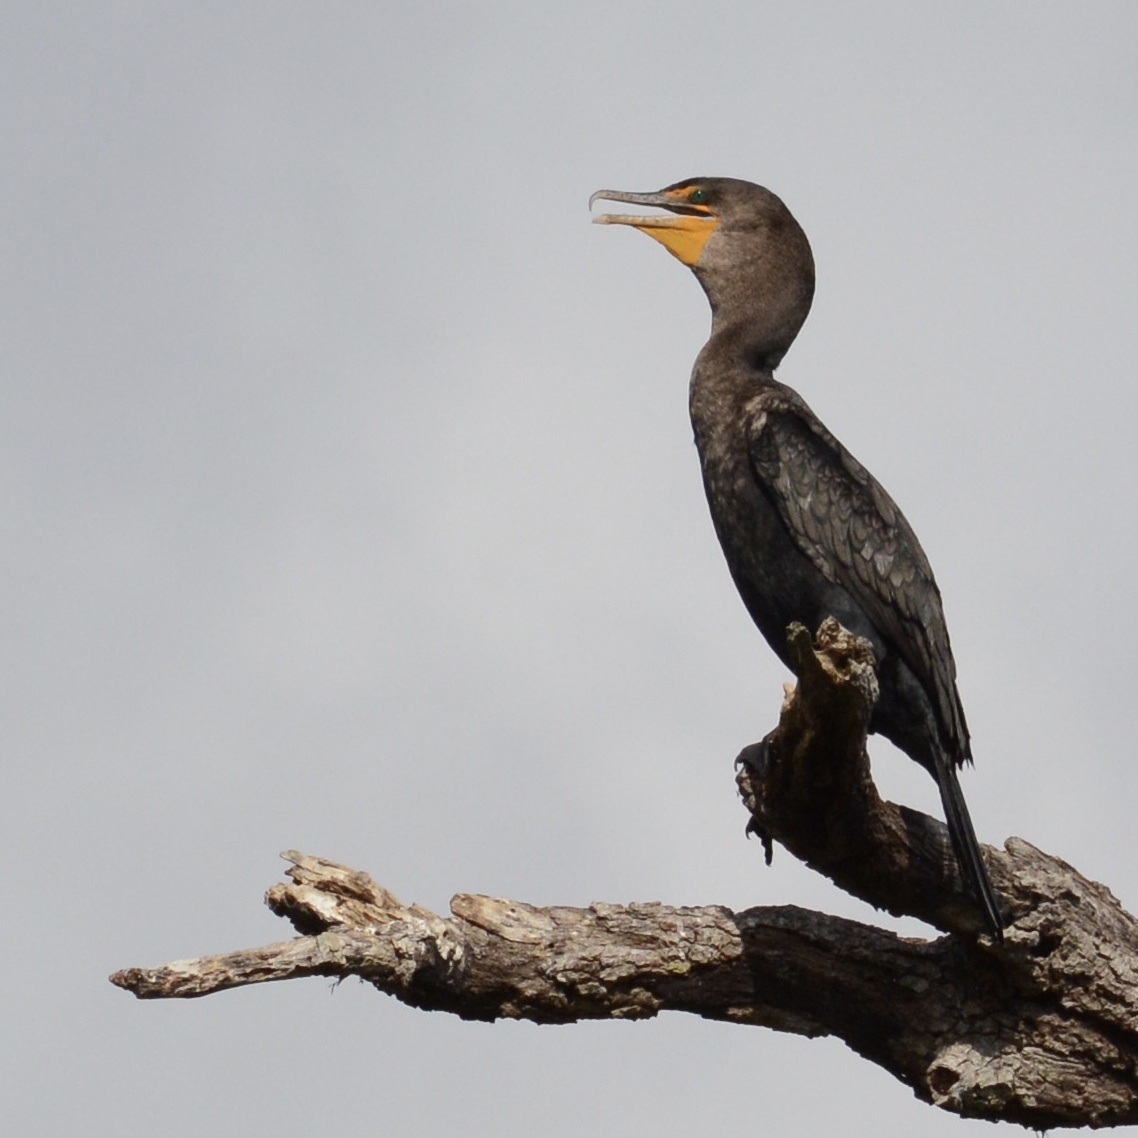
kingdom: Animalia
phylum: Chordata
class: Aves
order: Suliformes
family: Phalacrocoracidae
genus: Phalacrocorax
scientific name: Phalacrocorax auritus
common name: Double-crested cormorant
